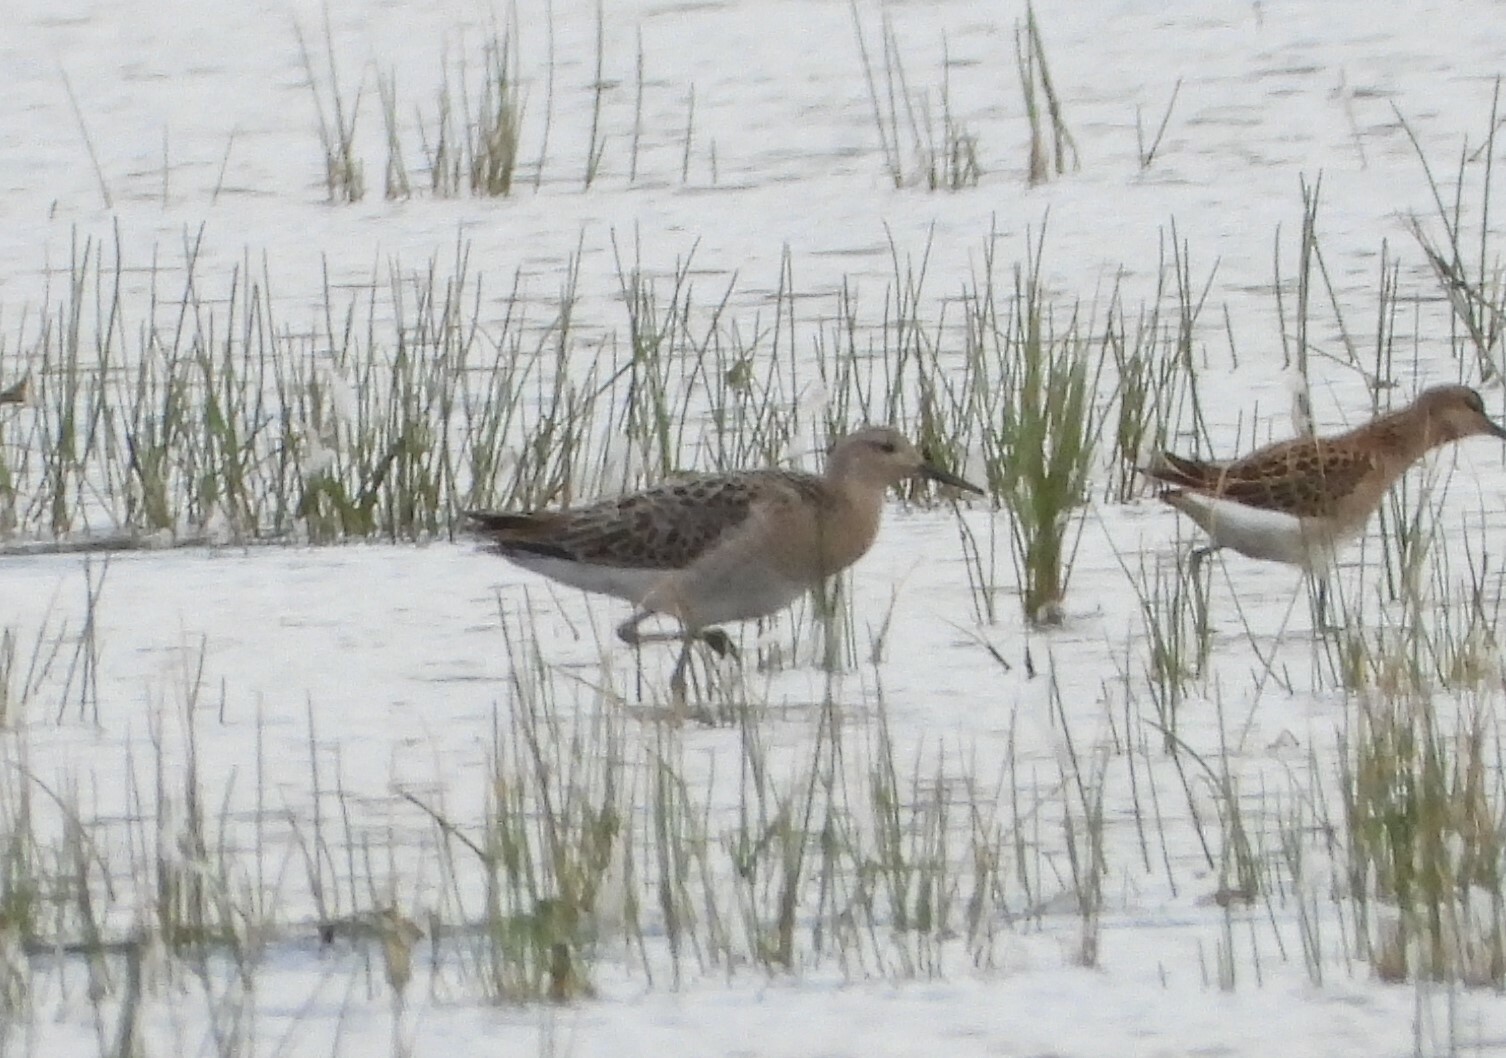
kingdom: Animalia
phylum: Chordata
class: Aves
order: Charadriiformes
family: Scolopacidae
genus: Calidris
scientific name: Calidris pugnax
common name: Ruff
